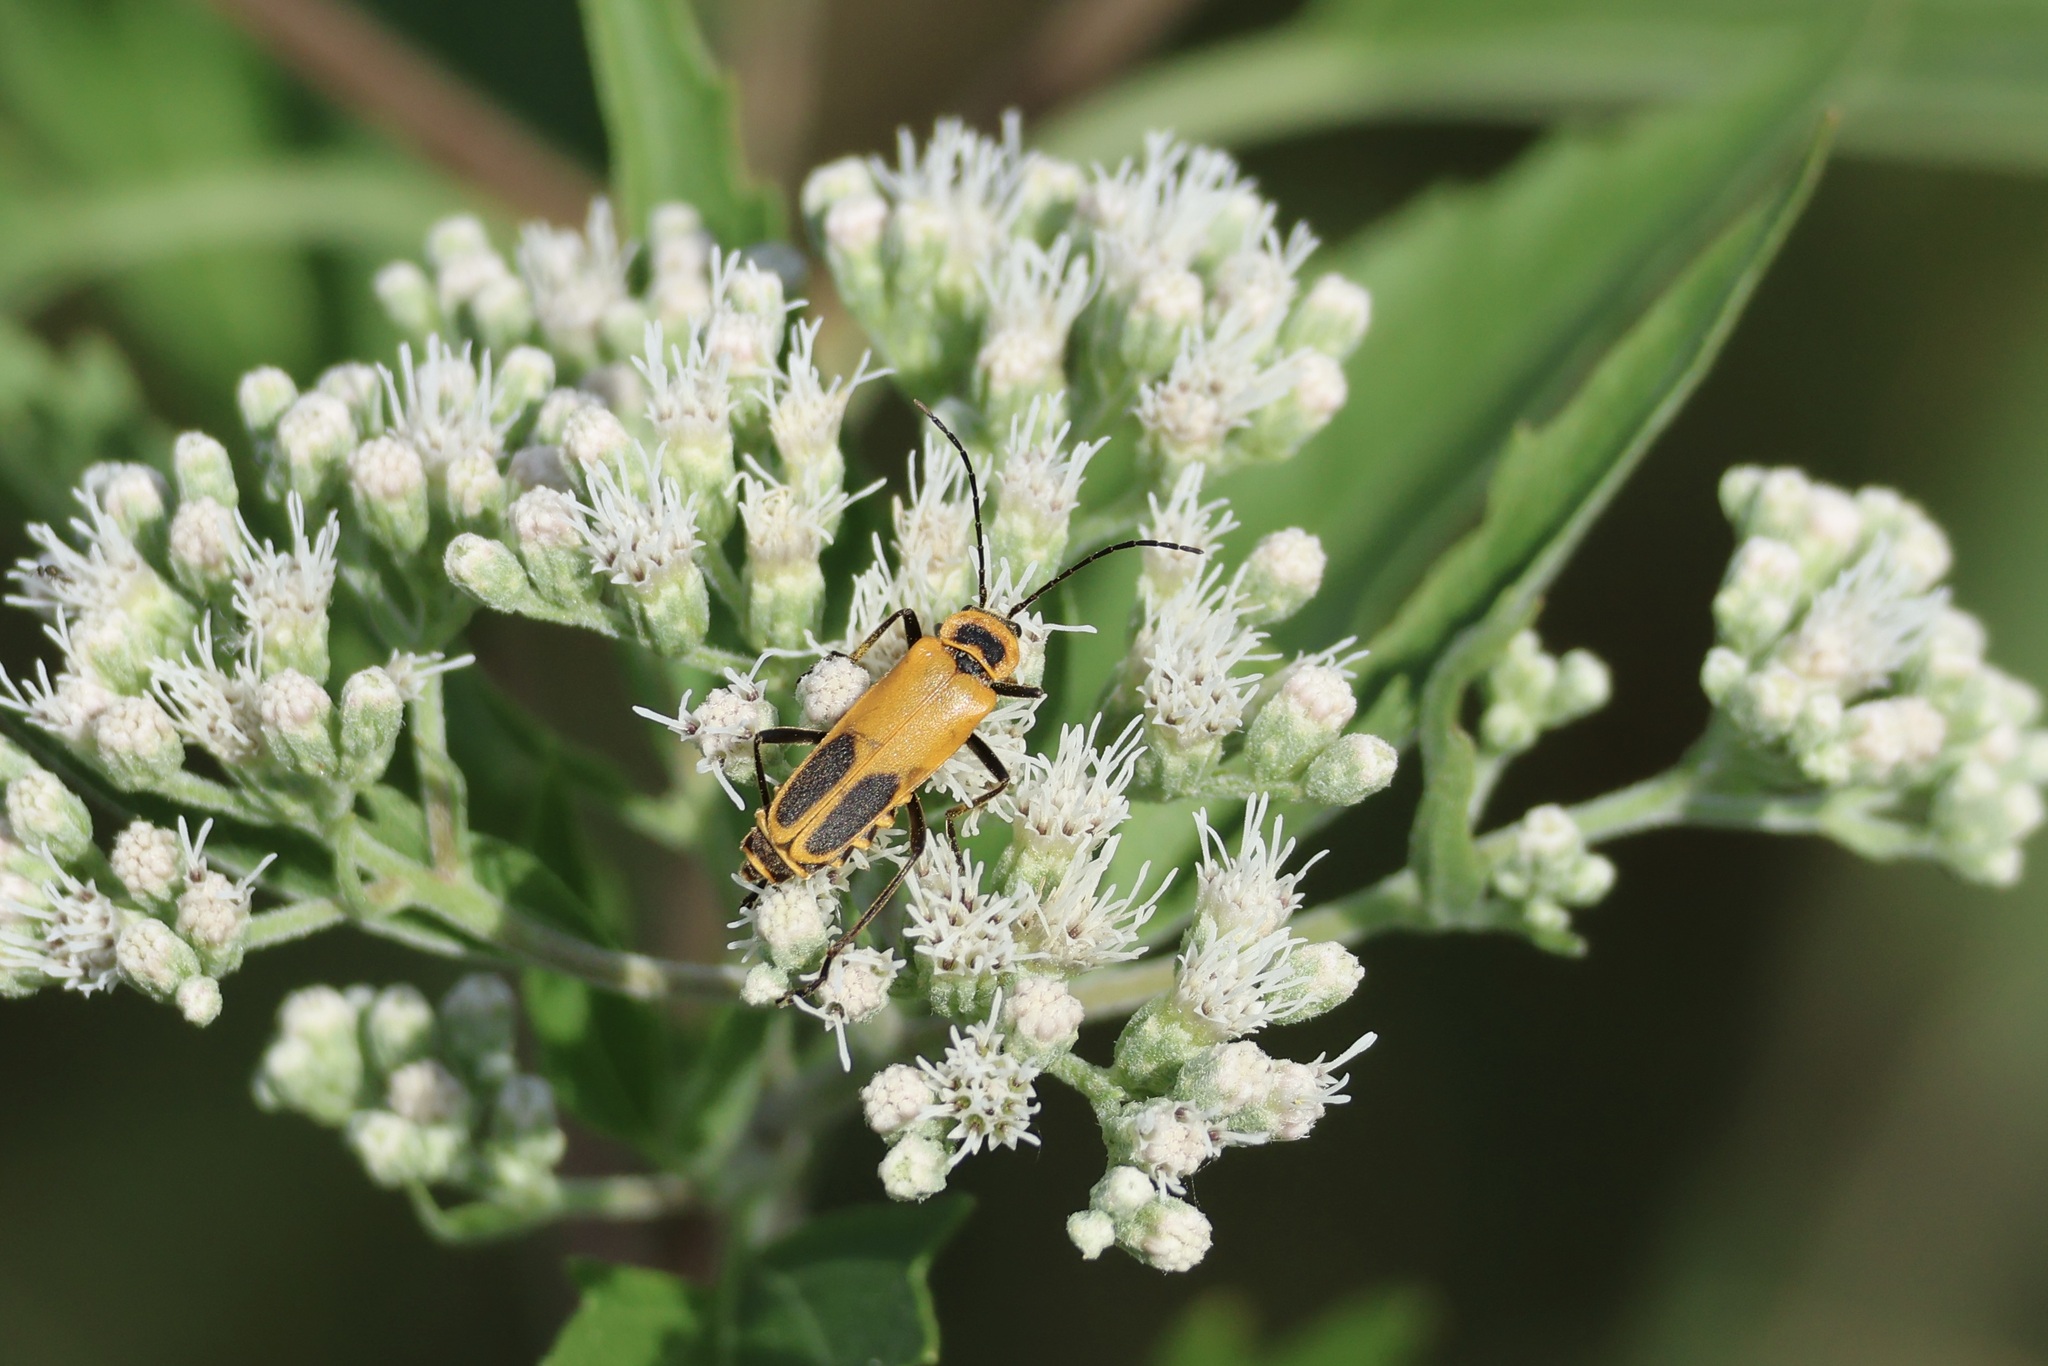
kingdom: Animalia
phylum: Arthropoda
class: Insecta
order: Coleoptera
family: Cantharidae
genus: Chauliognathus
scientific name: Chauliognathus pensylvanicus
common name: Goldenrod soldier beetle
